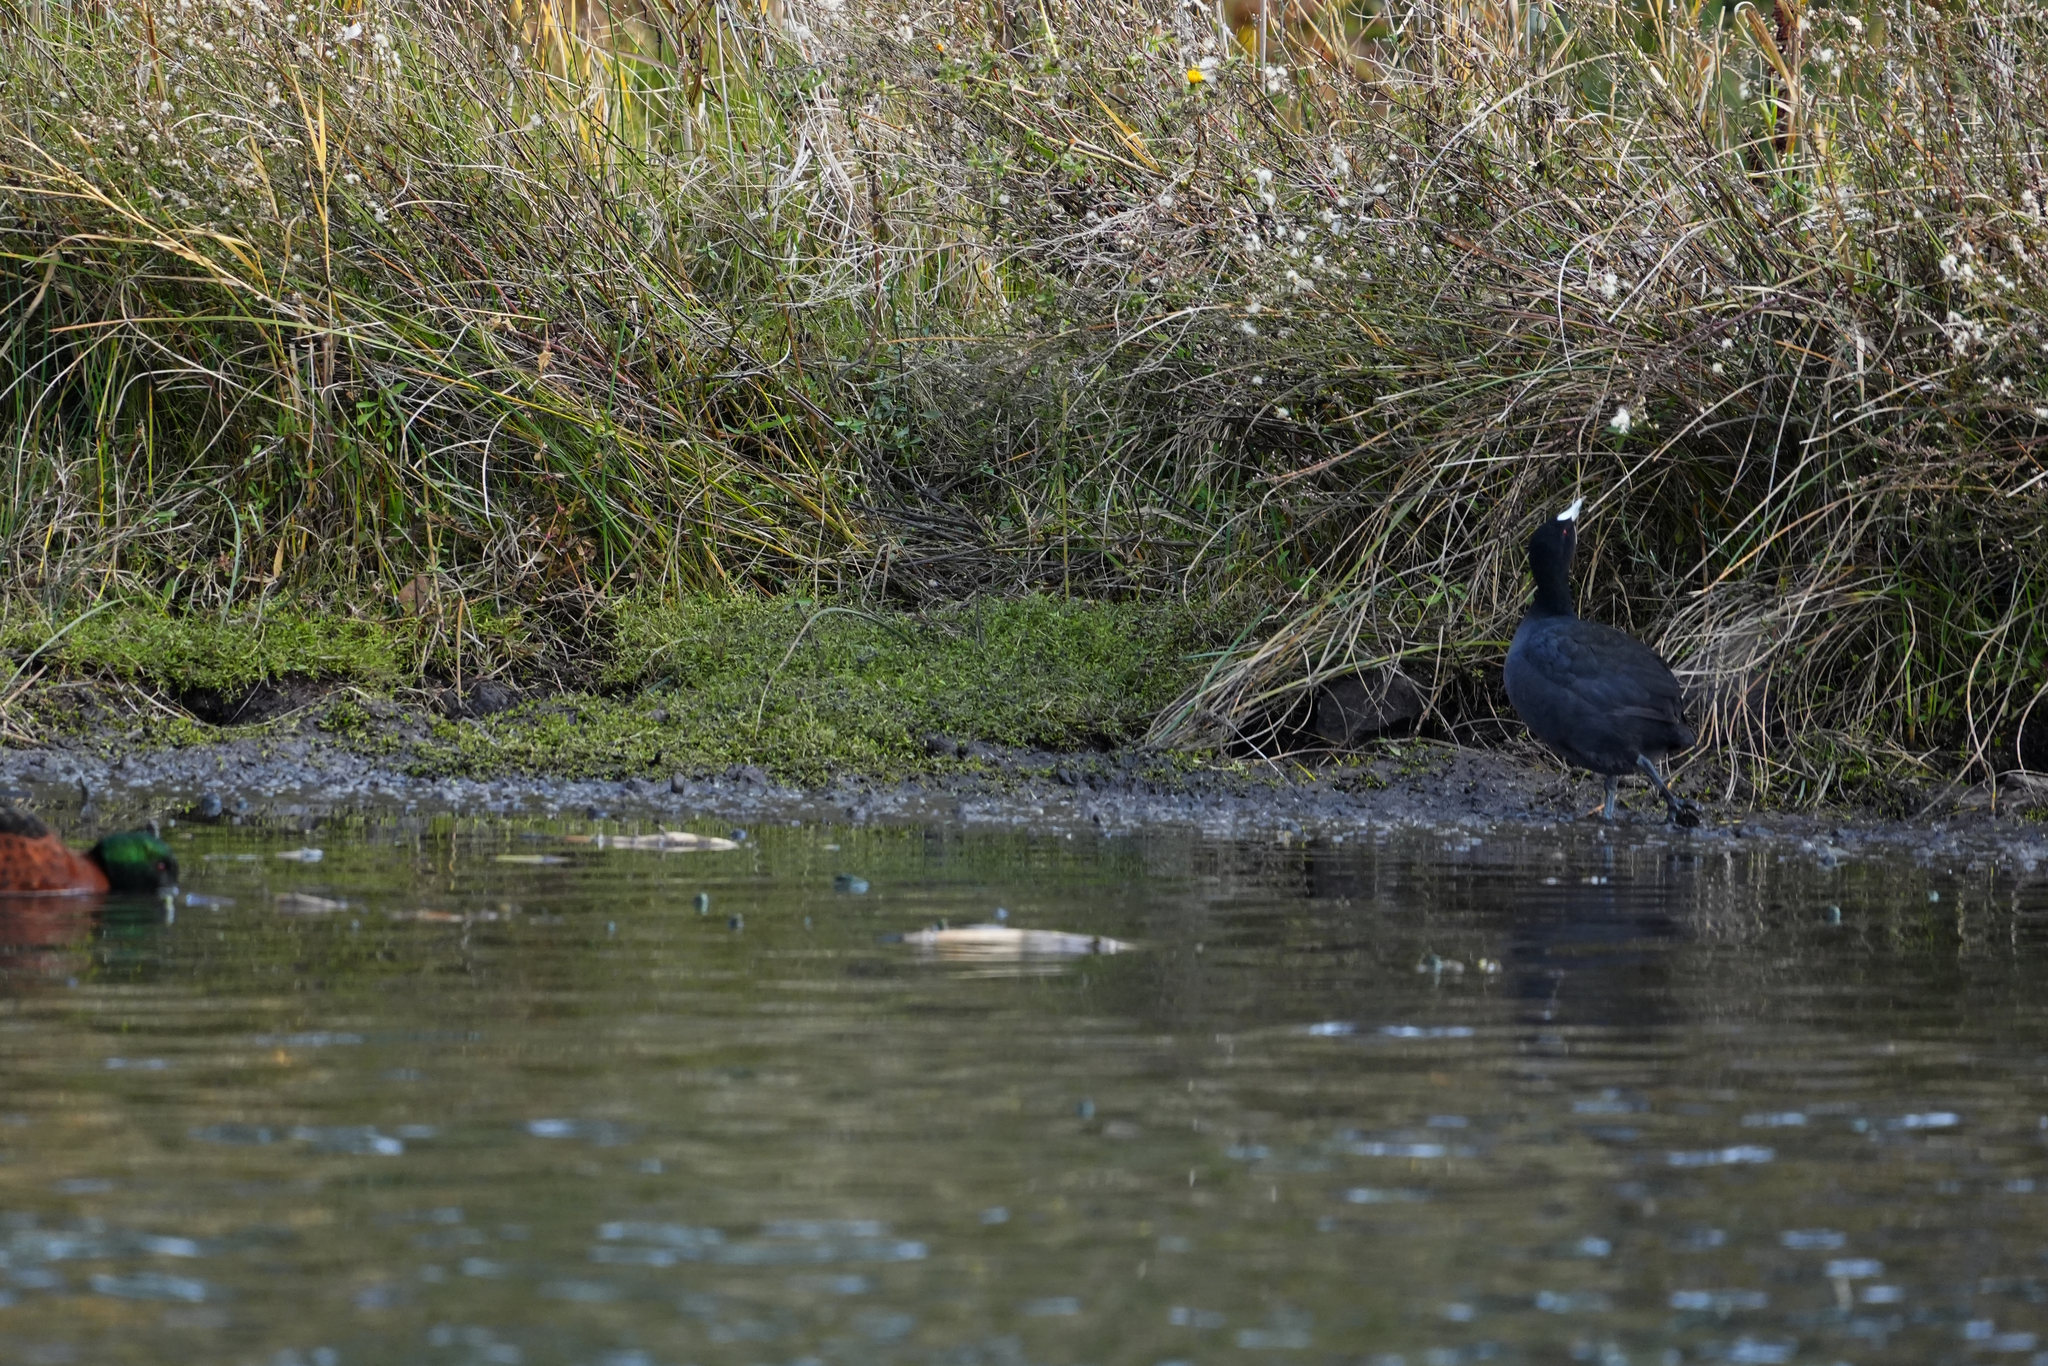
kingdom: Animalia
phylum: Chordata
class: Aves
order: Gruiformes
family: Rallidae
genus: Fulica
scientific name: Fulica atra
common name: Eurasian coot
